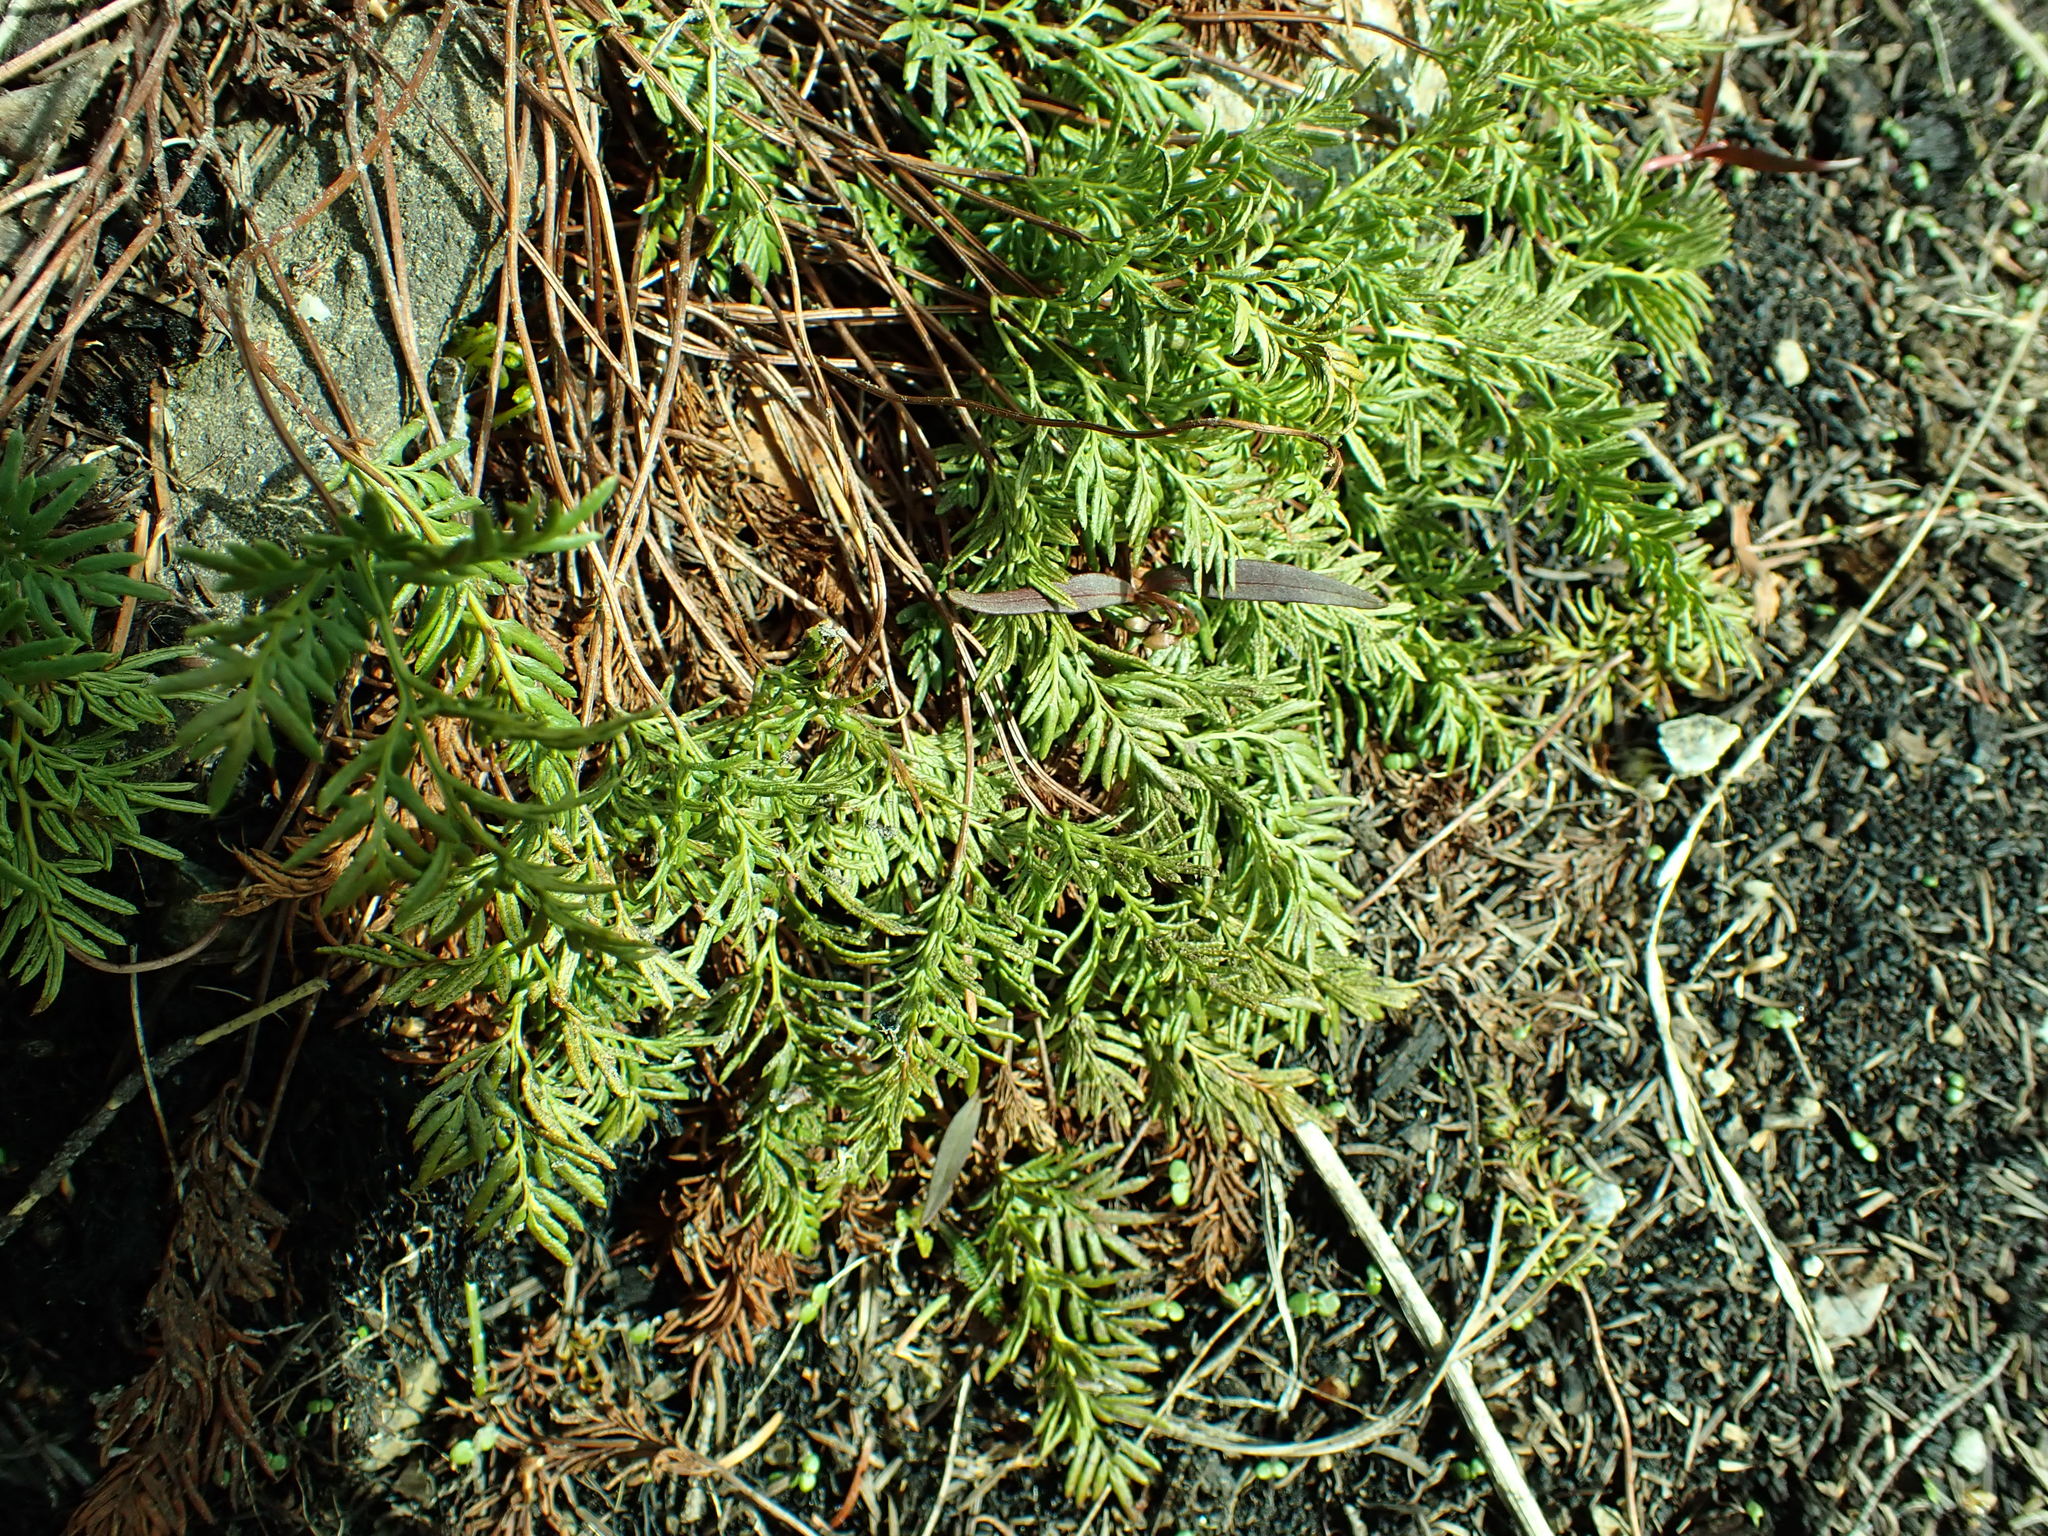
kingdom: Plantae
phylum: Tracheophyta
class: Polypodiopsida
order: Polypodiales
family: Pteridaceae
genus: Aspidotis
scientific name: Aspidotis densa
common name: Indian's dream
